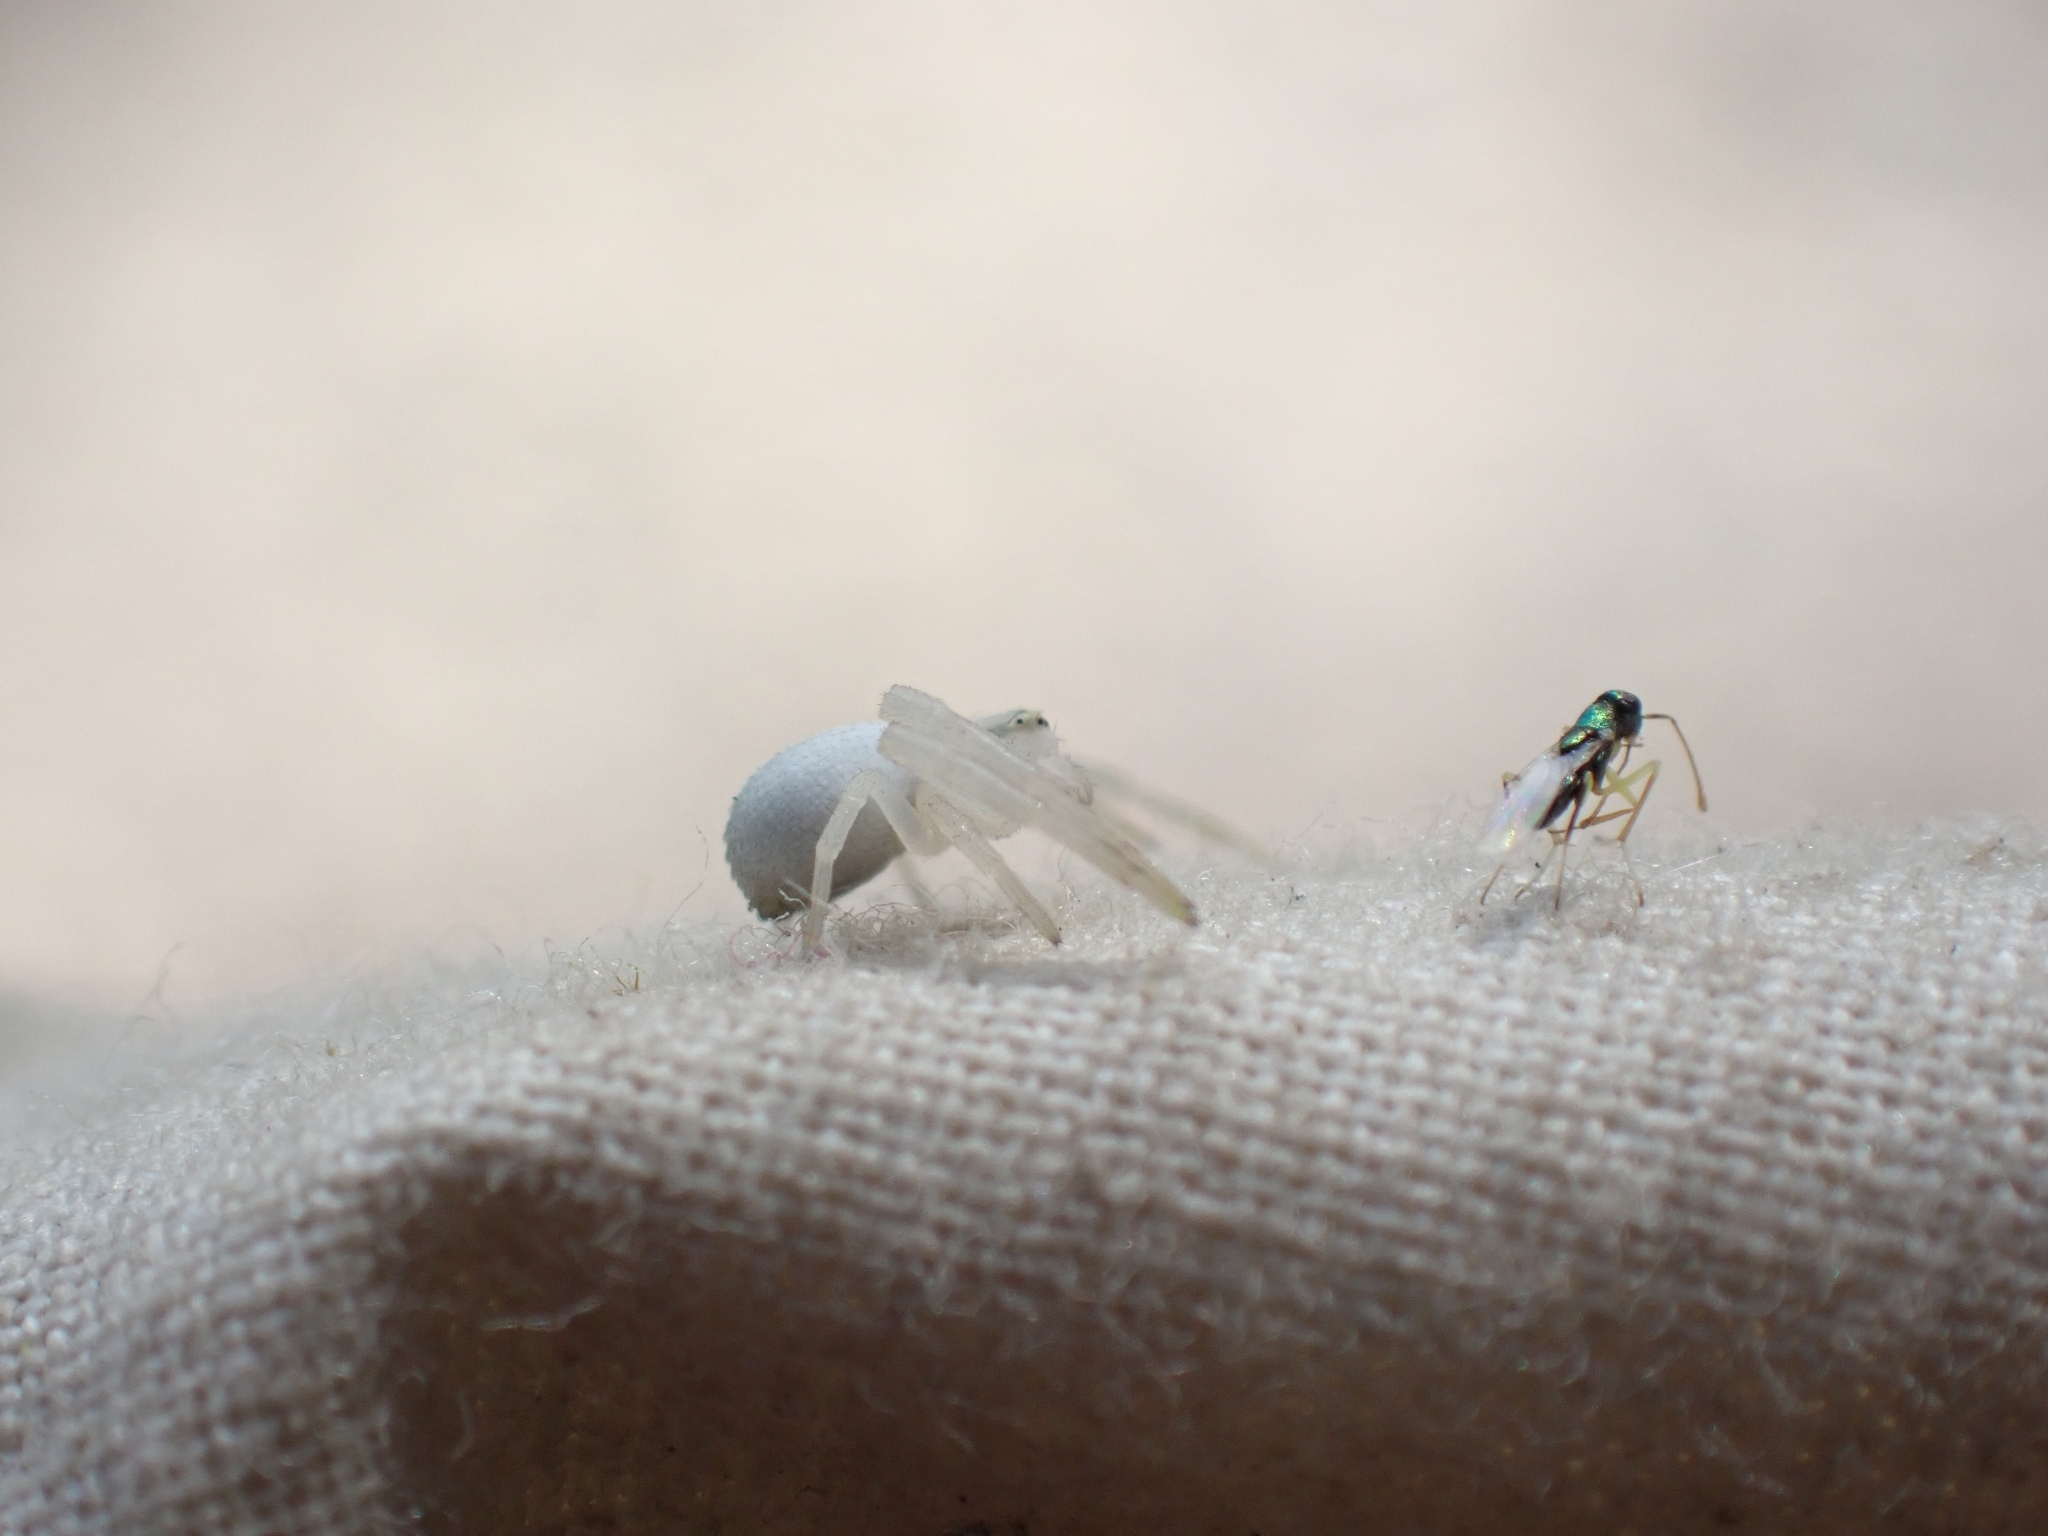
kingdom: Animalia
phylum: Arthropoda
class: Arachnida
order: Araneae
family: Thomisidae
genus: Misumena
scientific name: Misumena vatia
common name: Goldenrod crab spider
